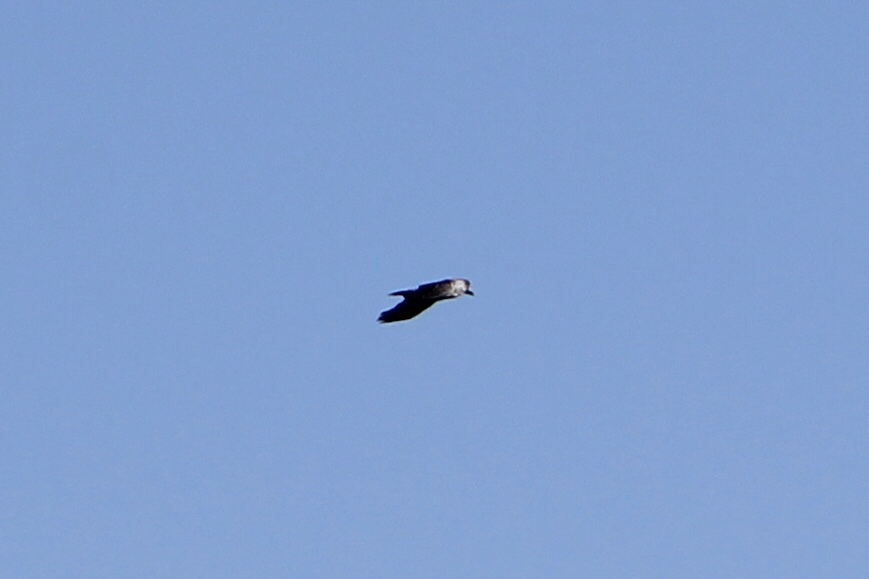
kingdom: Animalia
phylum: Chordata
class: Aves
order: Passeriformes
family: Corvidae
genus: Corvus
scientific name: Corvus corax
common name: Common raven
